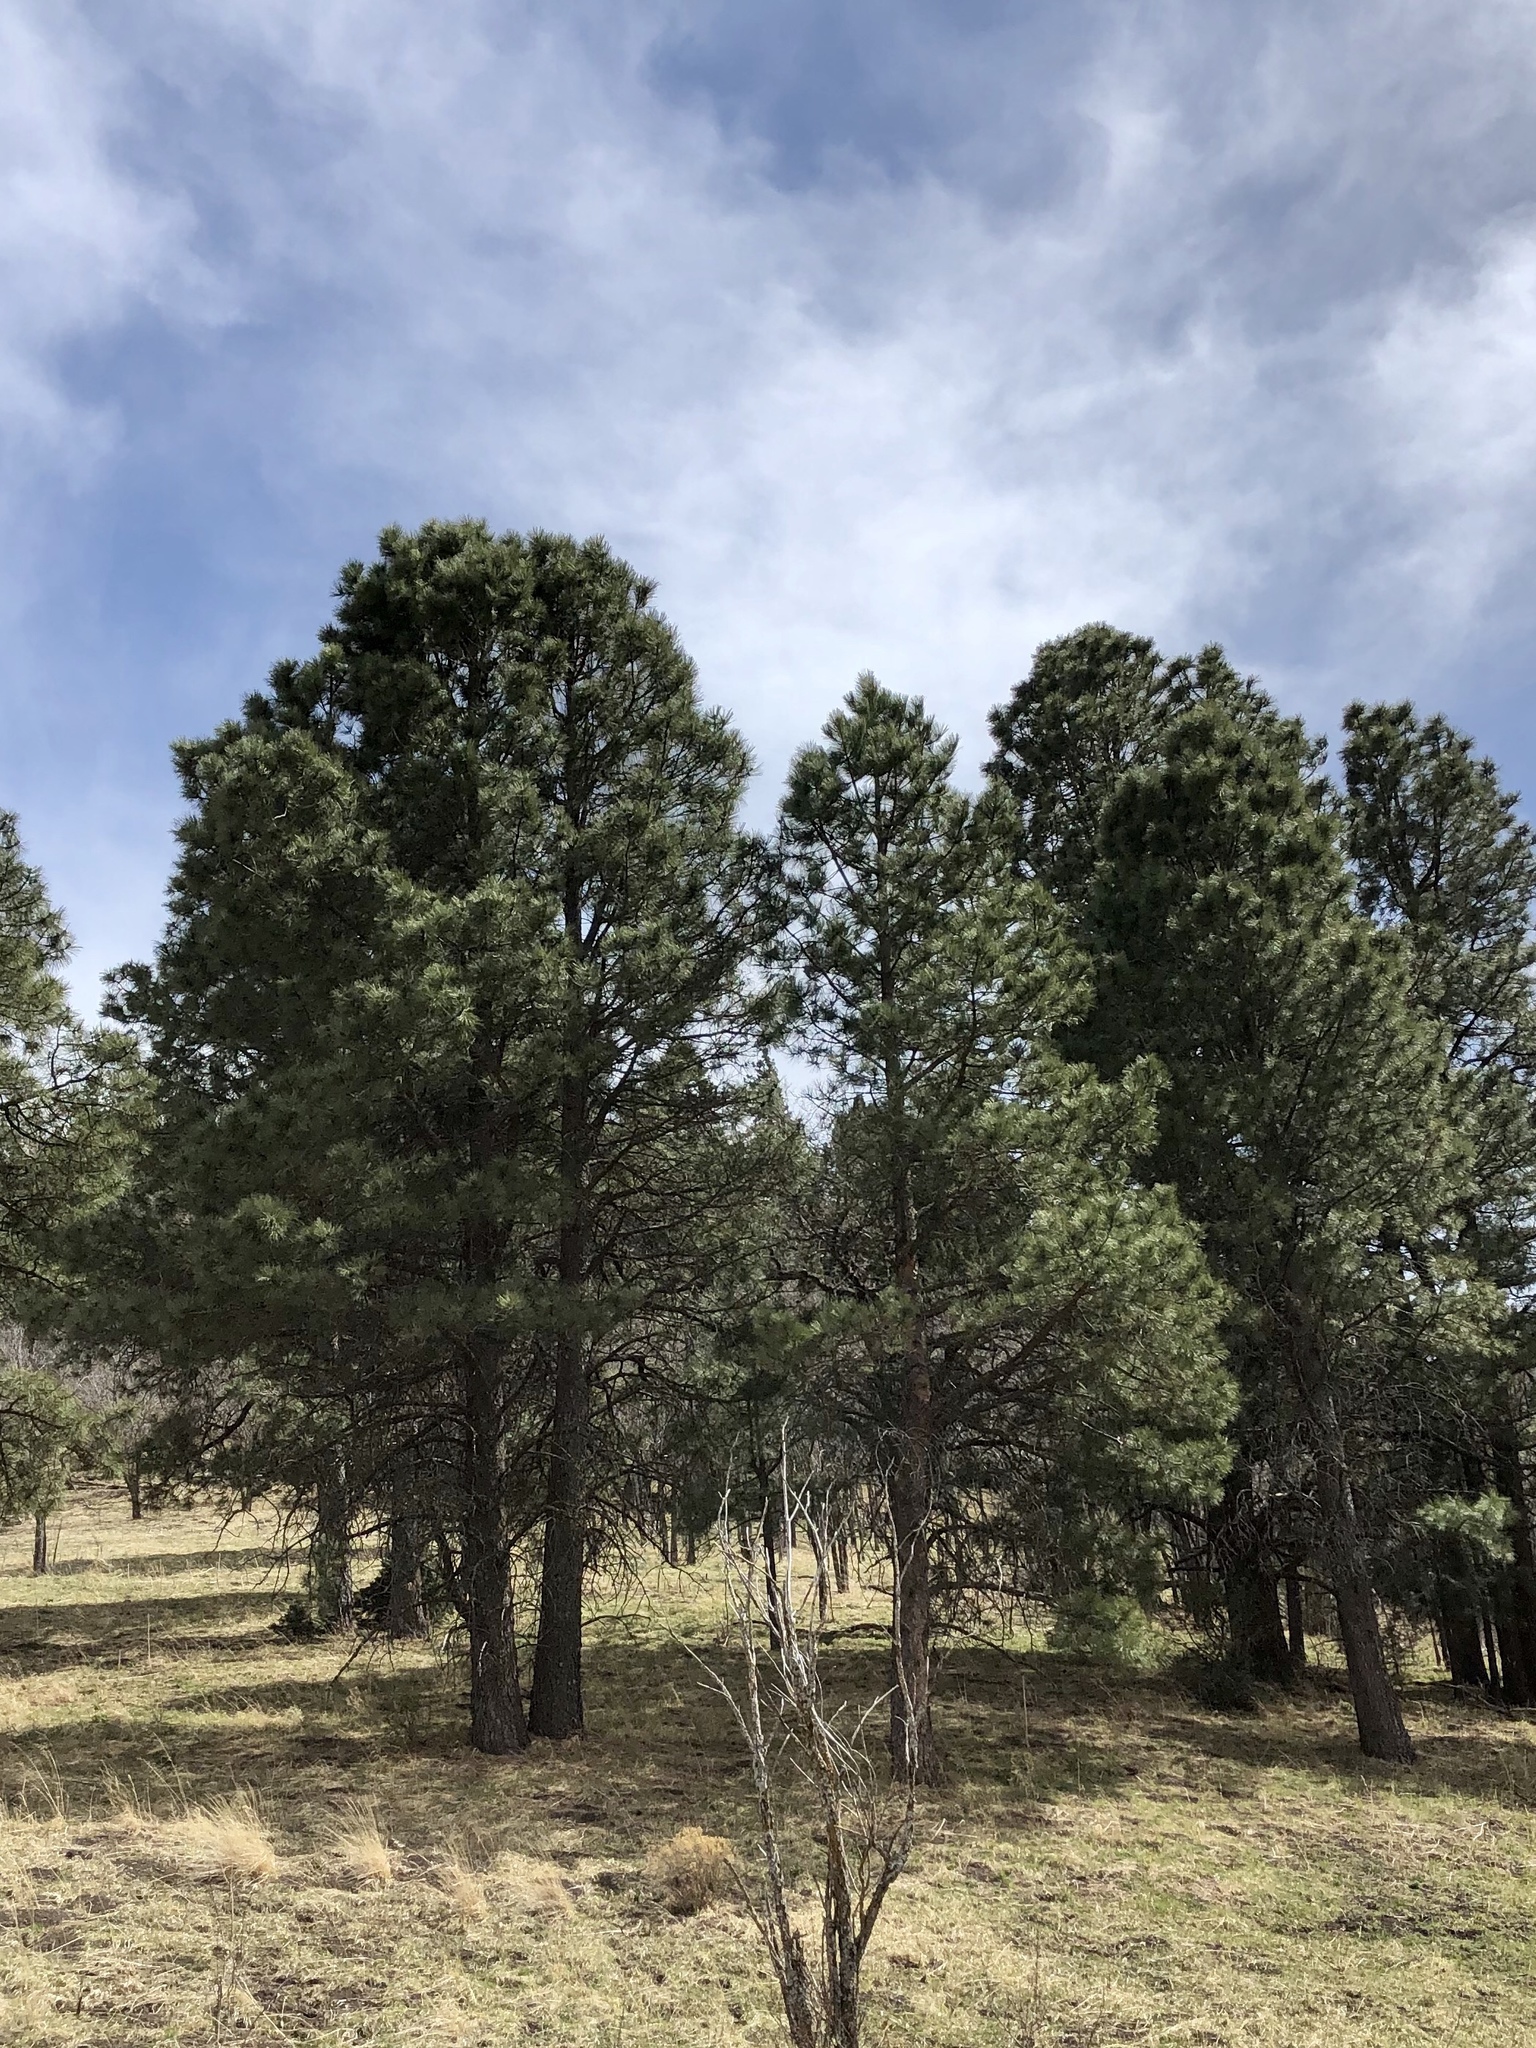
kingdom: Plantae
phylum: Tracheophyta
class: Pinopsida
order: Pinales
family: Pinaceae
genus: Pinus
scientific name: Pinus ponderosa
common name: Western yellow-pine
